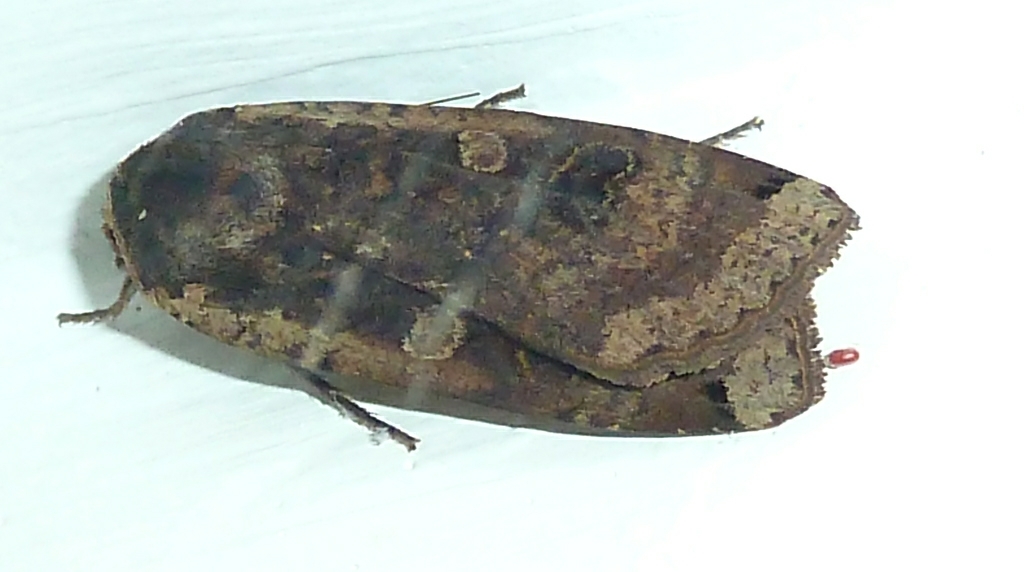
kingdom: Animalia
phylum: Arthropoda
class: Insecta
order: Lepidoptera
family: Noctuidae
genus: Noctua
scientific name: Noctua pronuba
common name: Large yellow underwing
